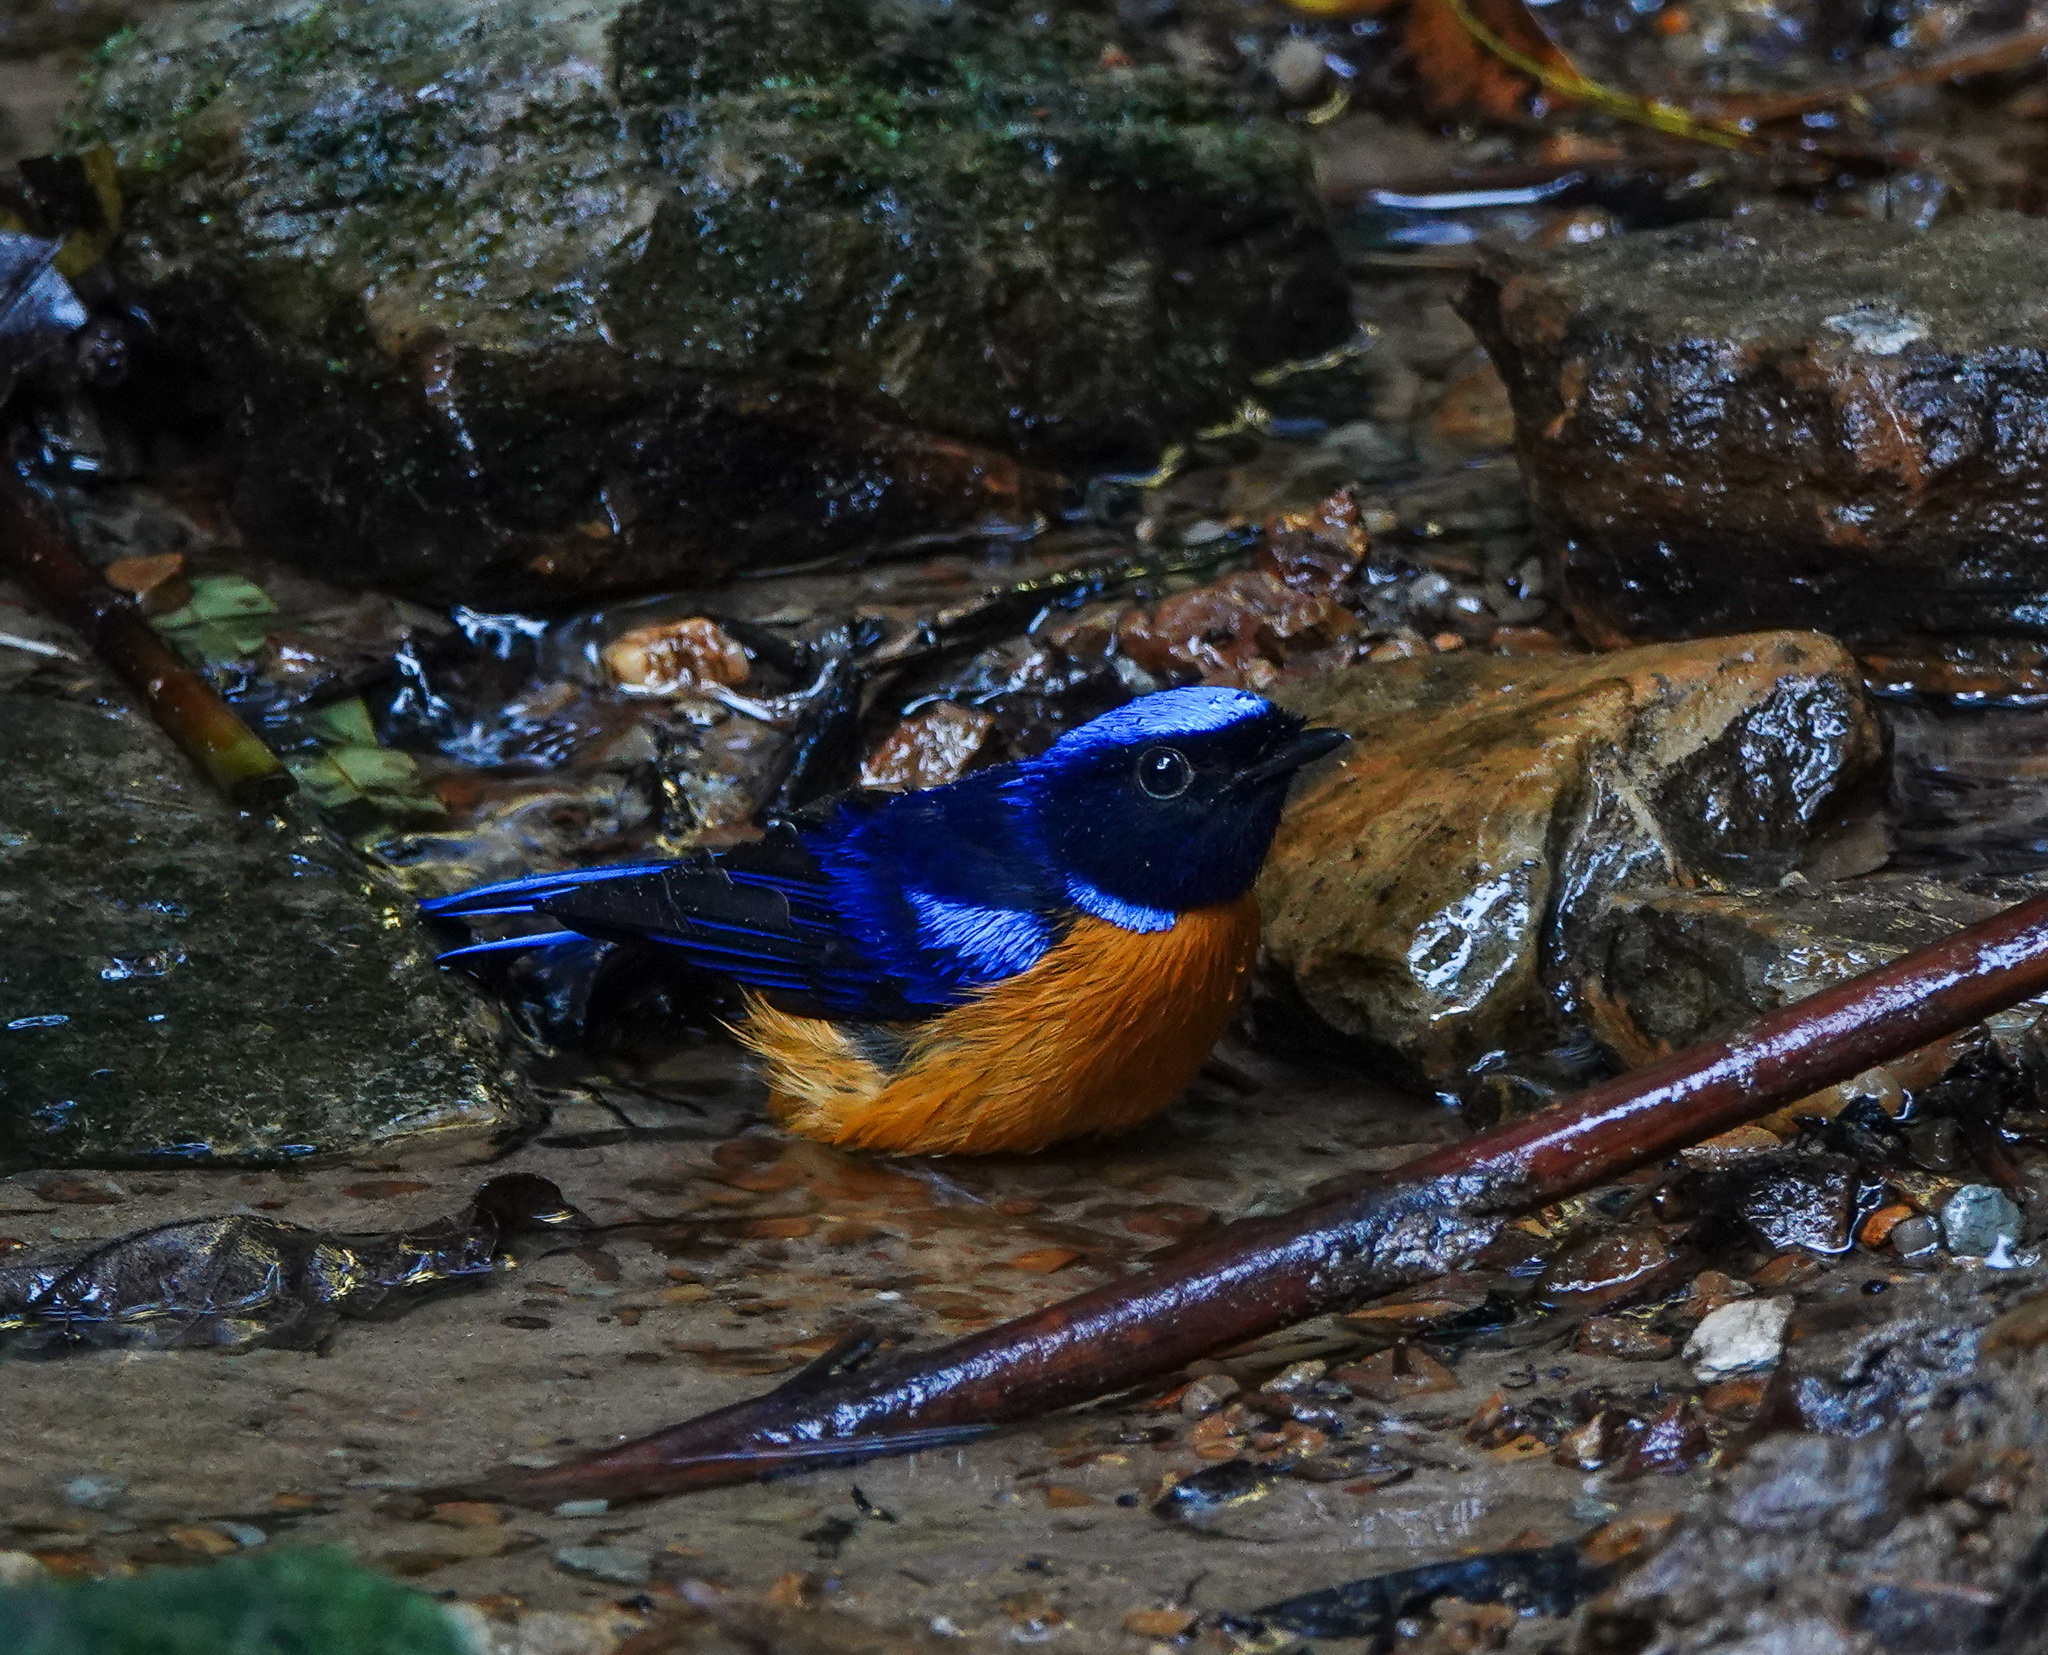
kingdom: Animalia
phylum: Chordata
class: Aves
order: Passeriformes
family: Muscicapidae
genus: Niltava
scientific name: Niltava sundara
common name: Rufous-bellied niltava
